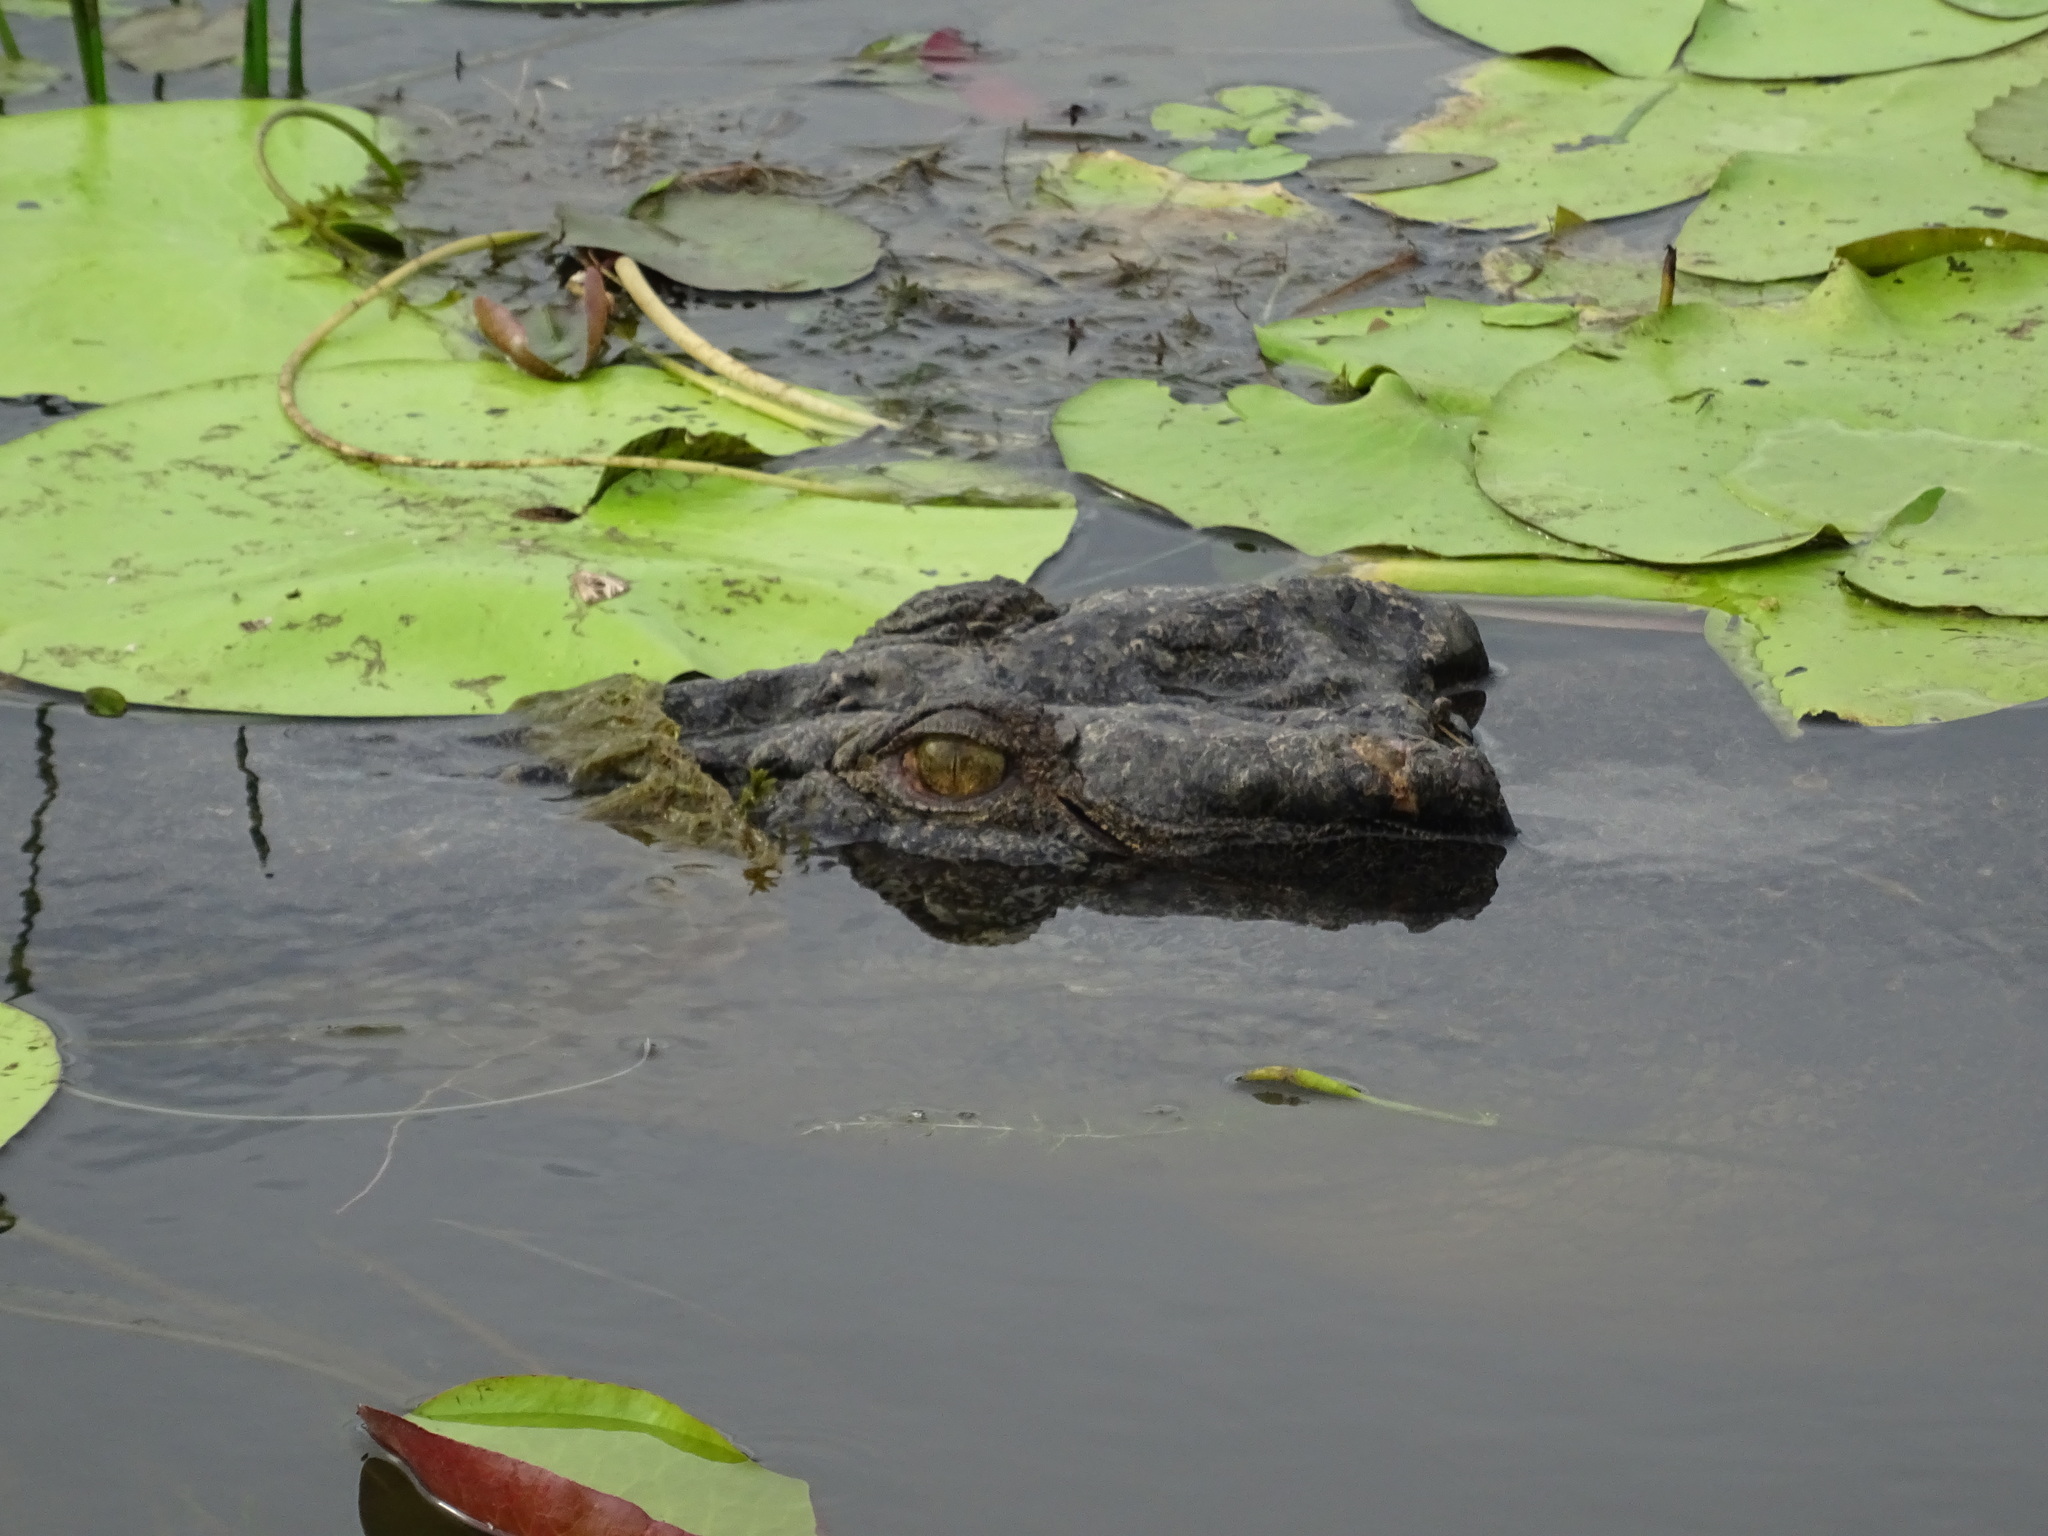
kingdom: Animalia
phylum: Chordata
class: Crocodylia
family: Crocodylidae
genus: Crocodylus
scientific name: Crocodylus porosus
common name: Saltwater crocodile
